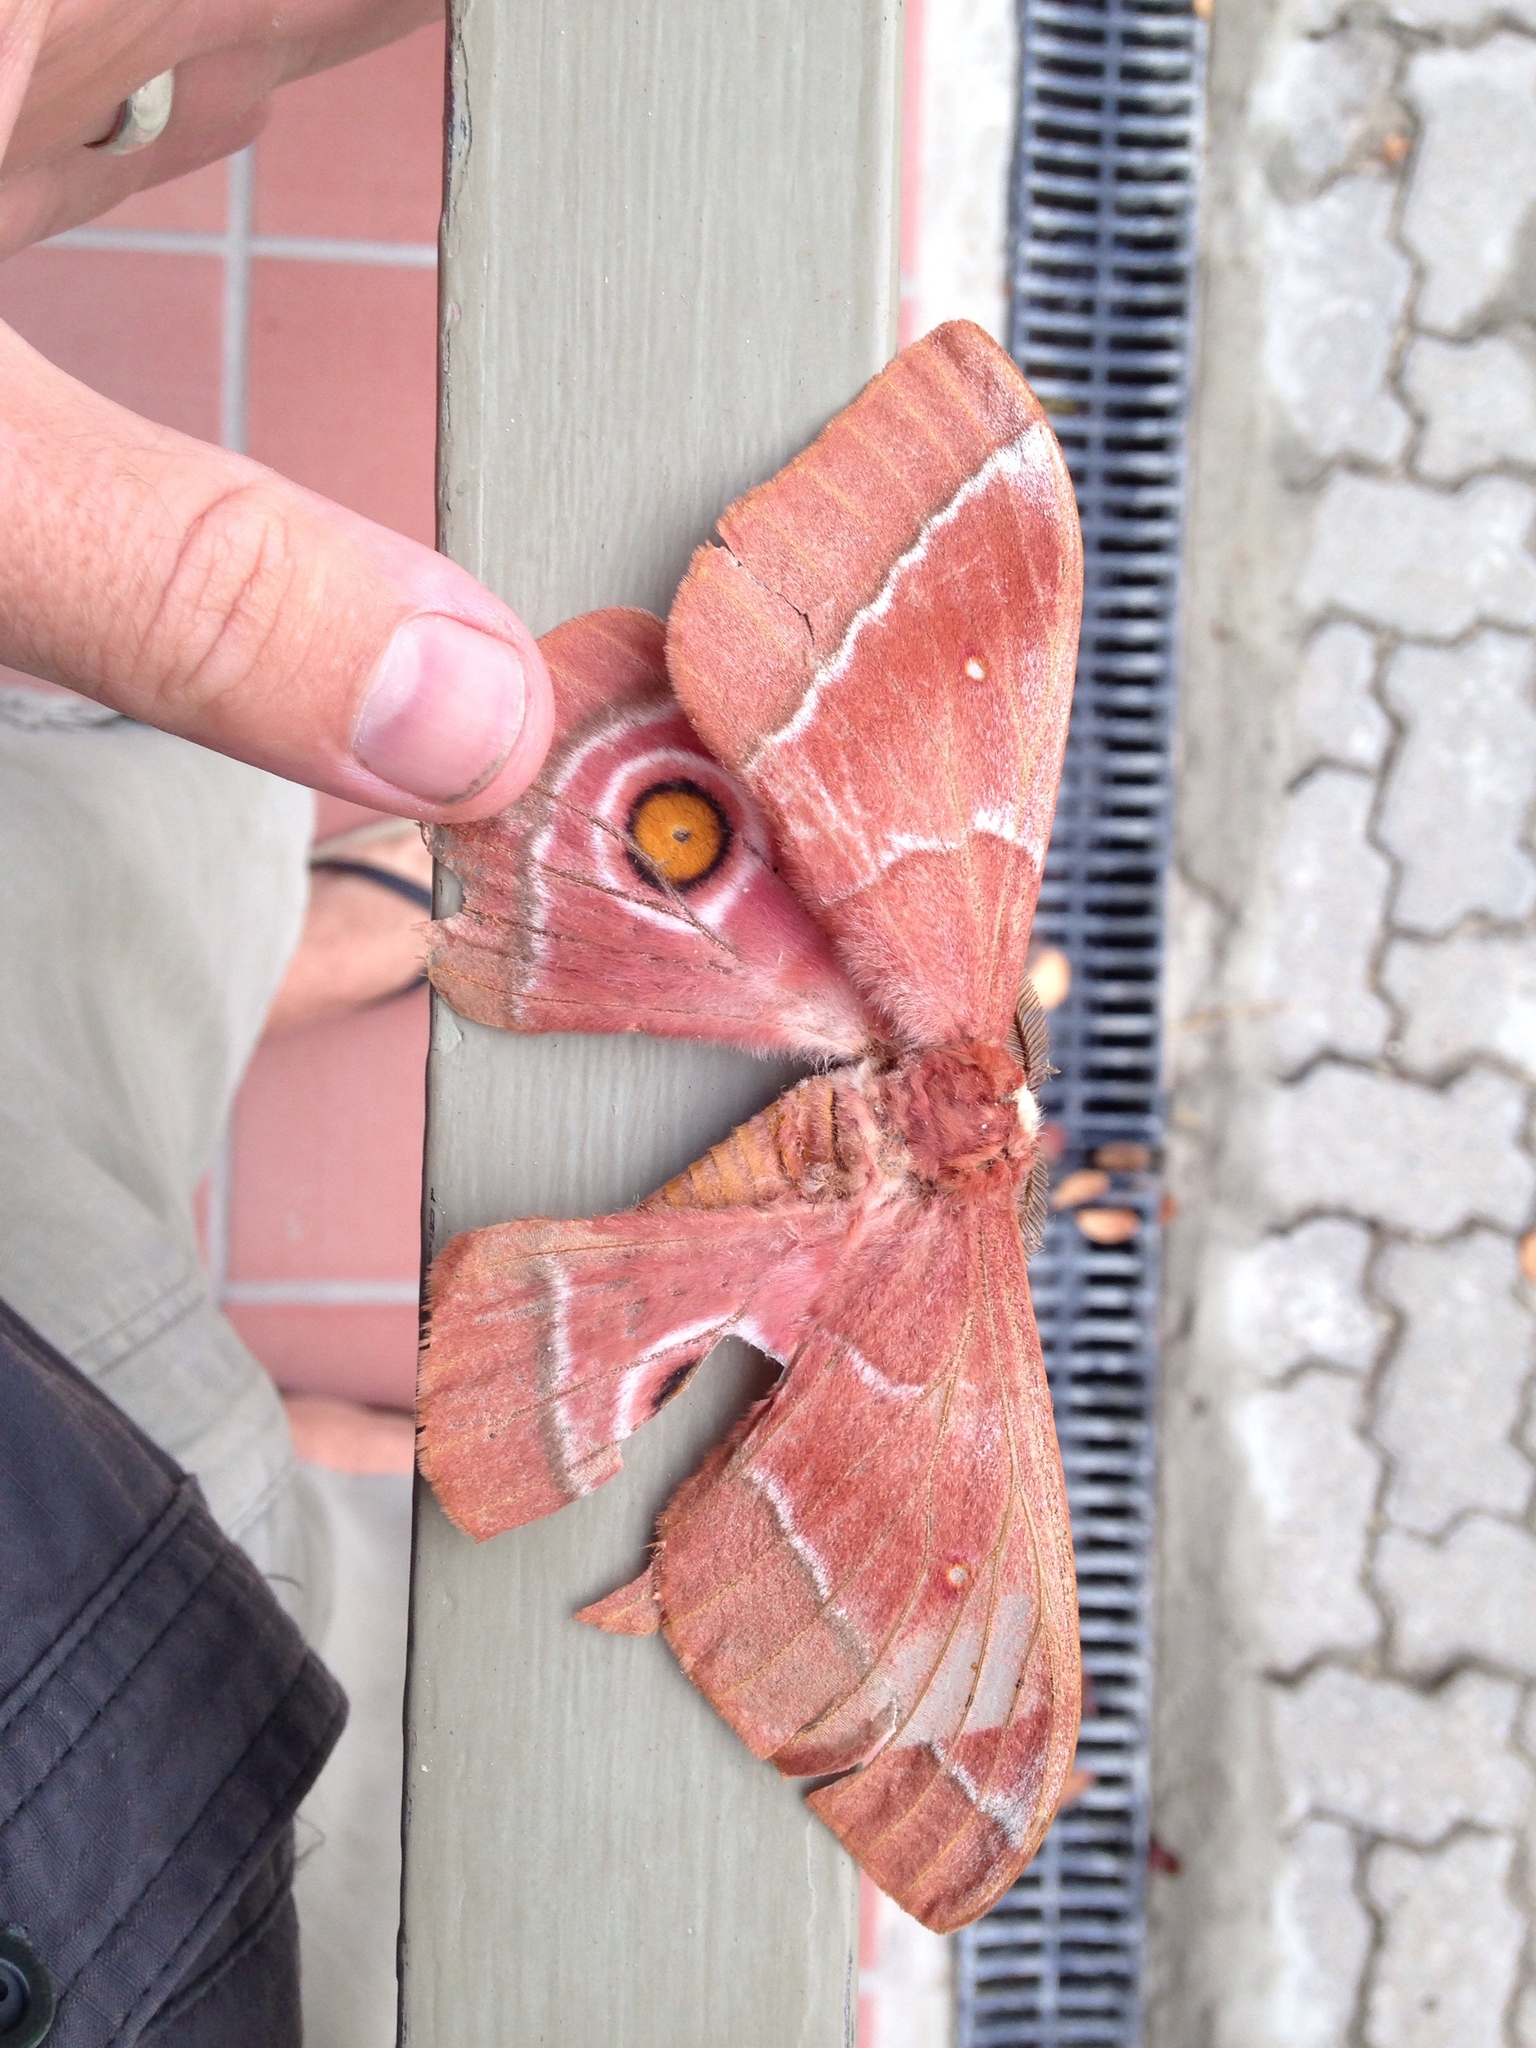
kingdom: Animalia
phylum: Arthropoda
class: Insecta
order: Lepidoptera
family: Saturniidae
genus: Gonimbrasia
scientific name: Gonimbrasia belina
